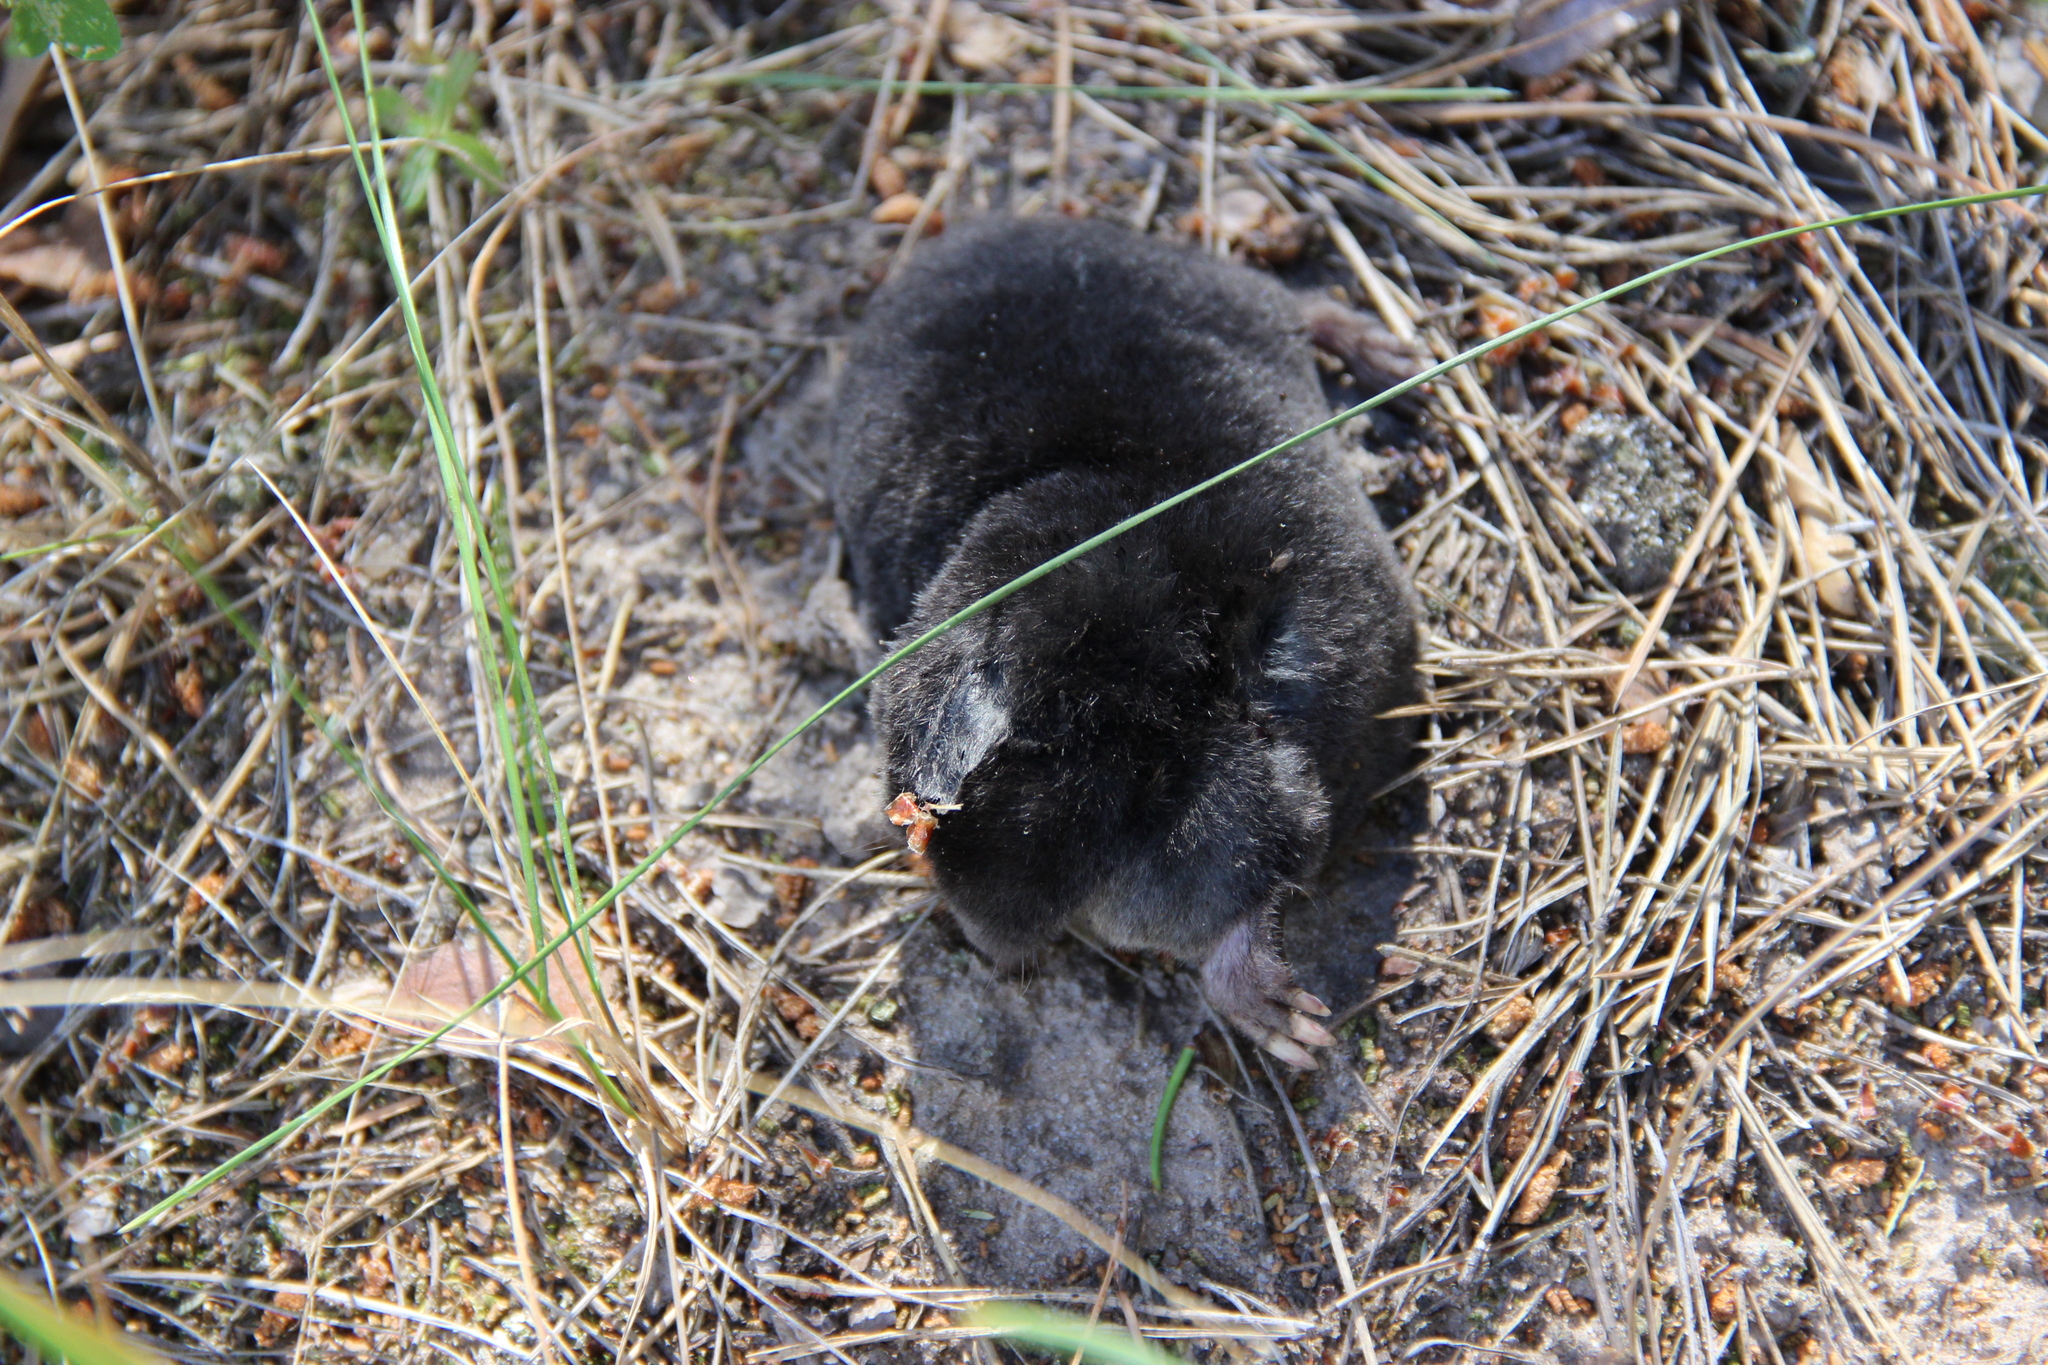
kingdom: Animalia
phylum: Chordata
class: Mammalia
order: Soricomorpha
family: Talpidae
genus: Talpa
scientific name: Talpa europaea
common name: European mole
